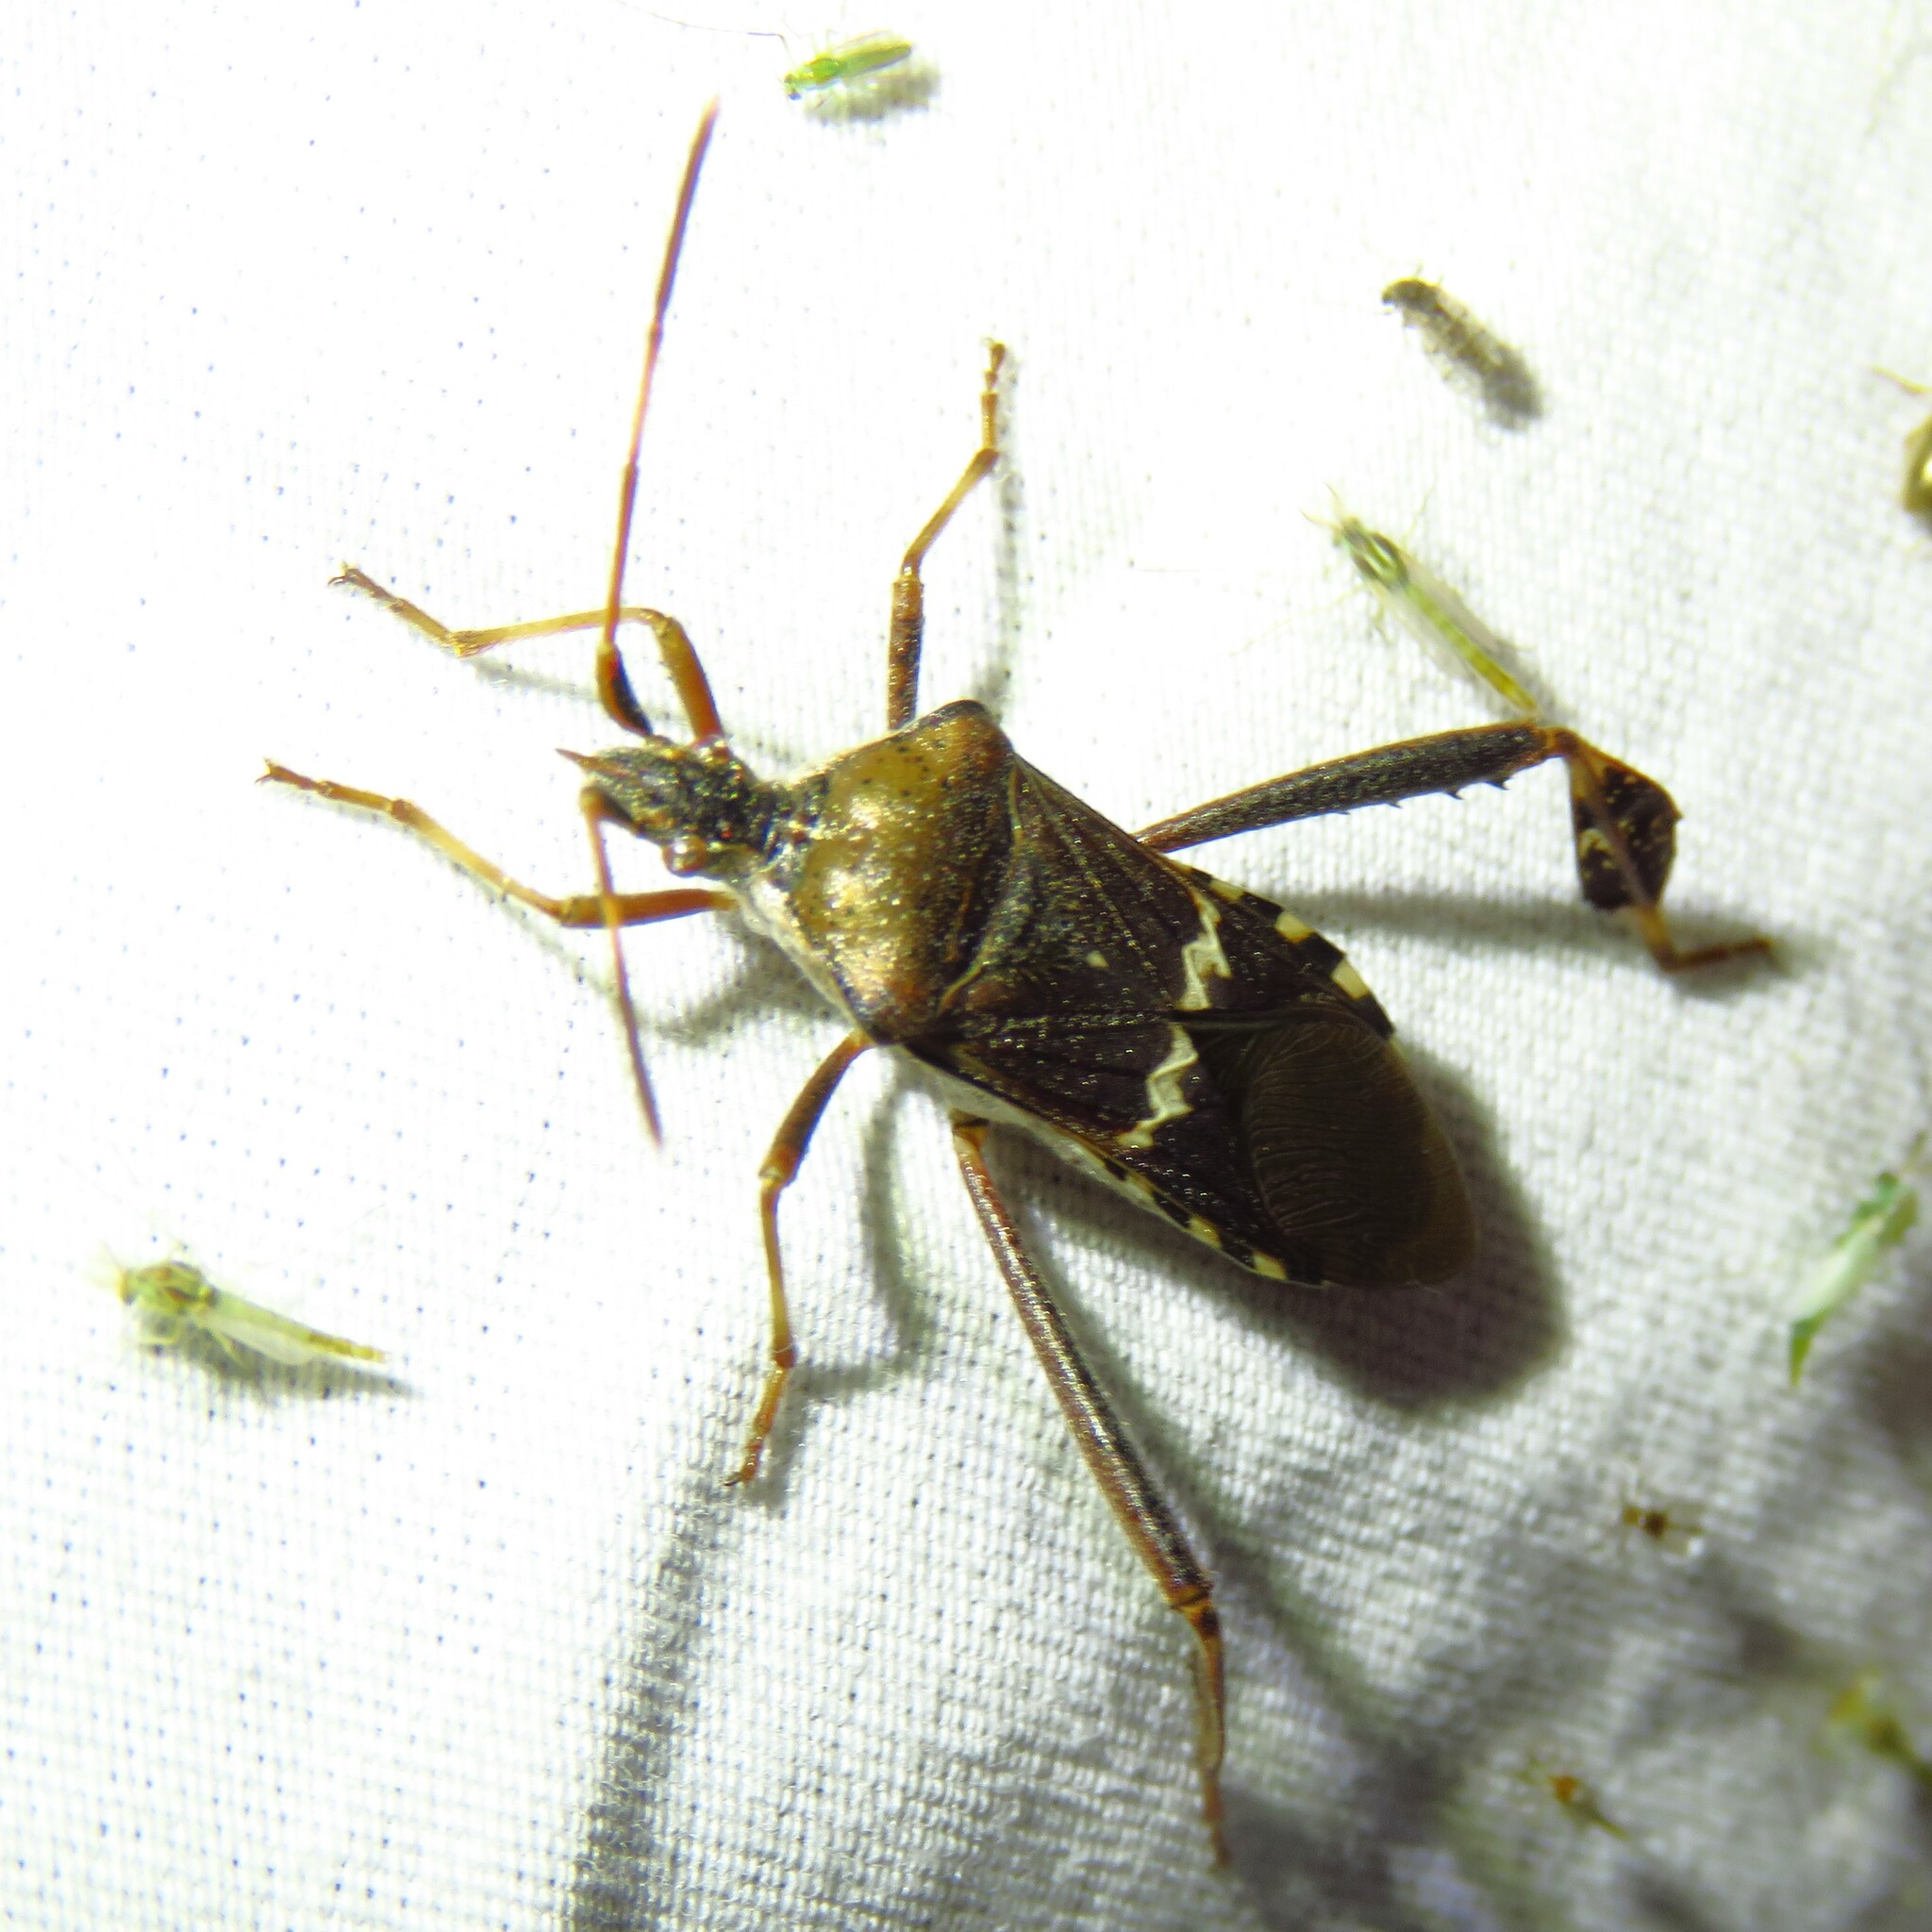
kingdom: Animalia
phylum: Arthropoda
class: Insecta
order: Hemiptera
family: Coreidae
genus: Leptoglossus
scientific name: Leptoglossus clypealis
